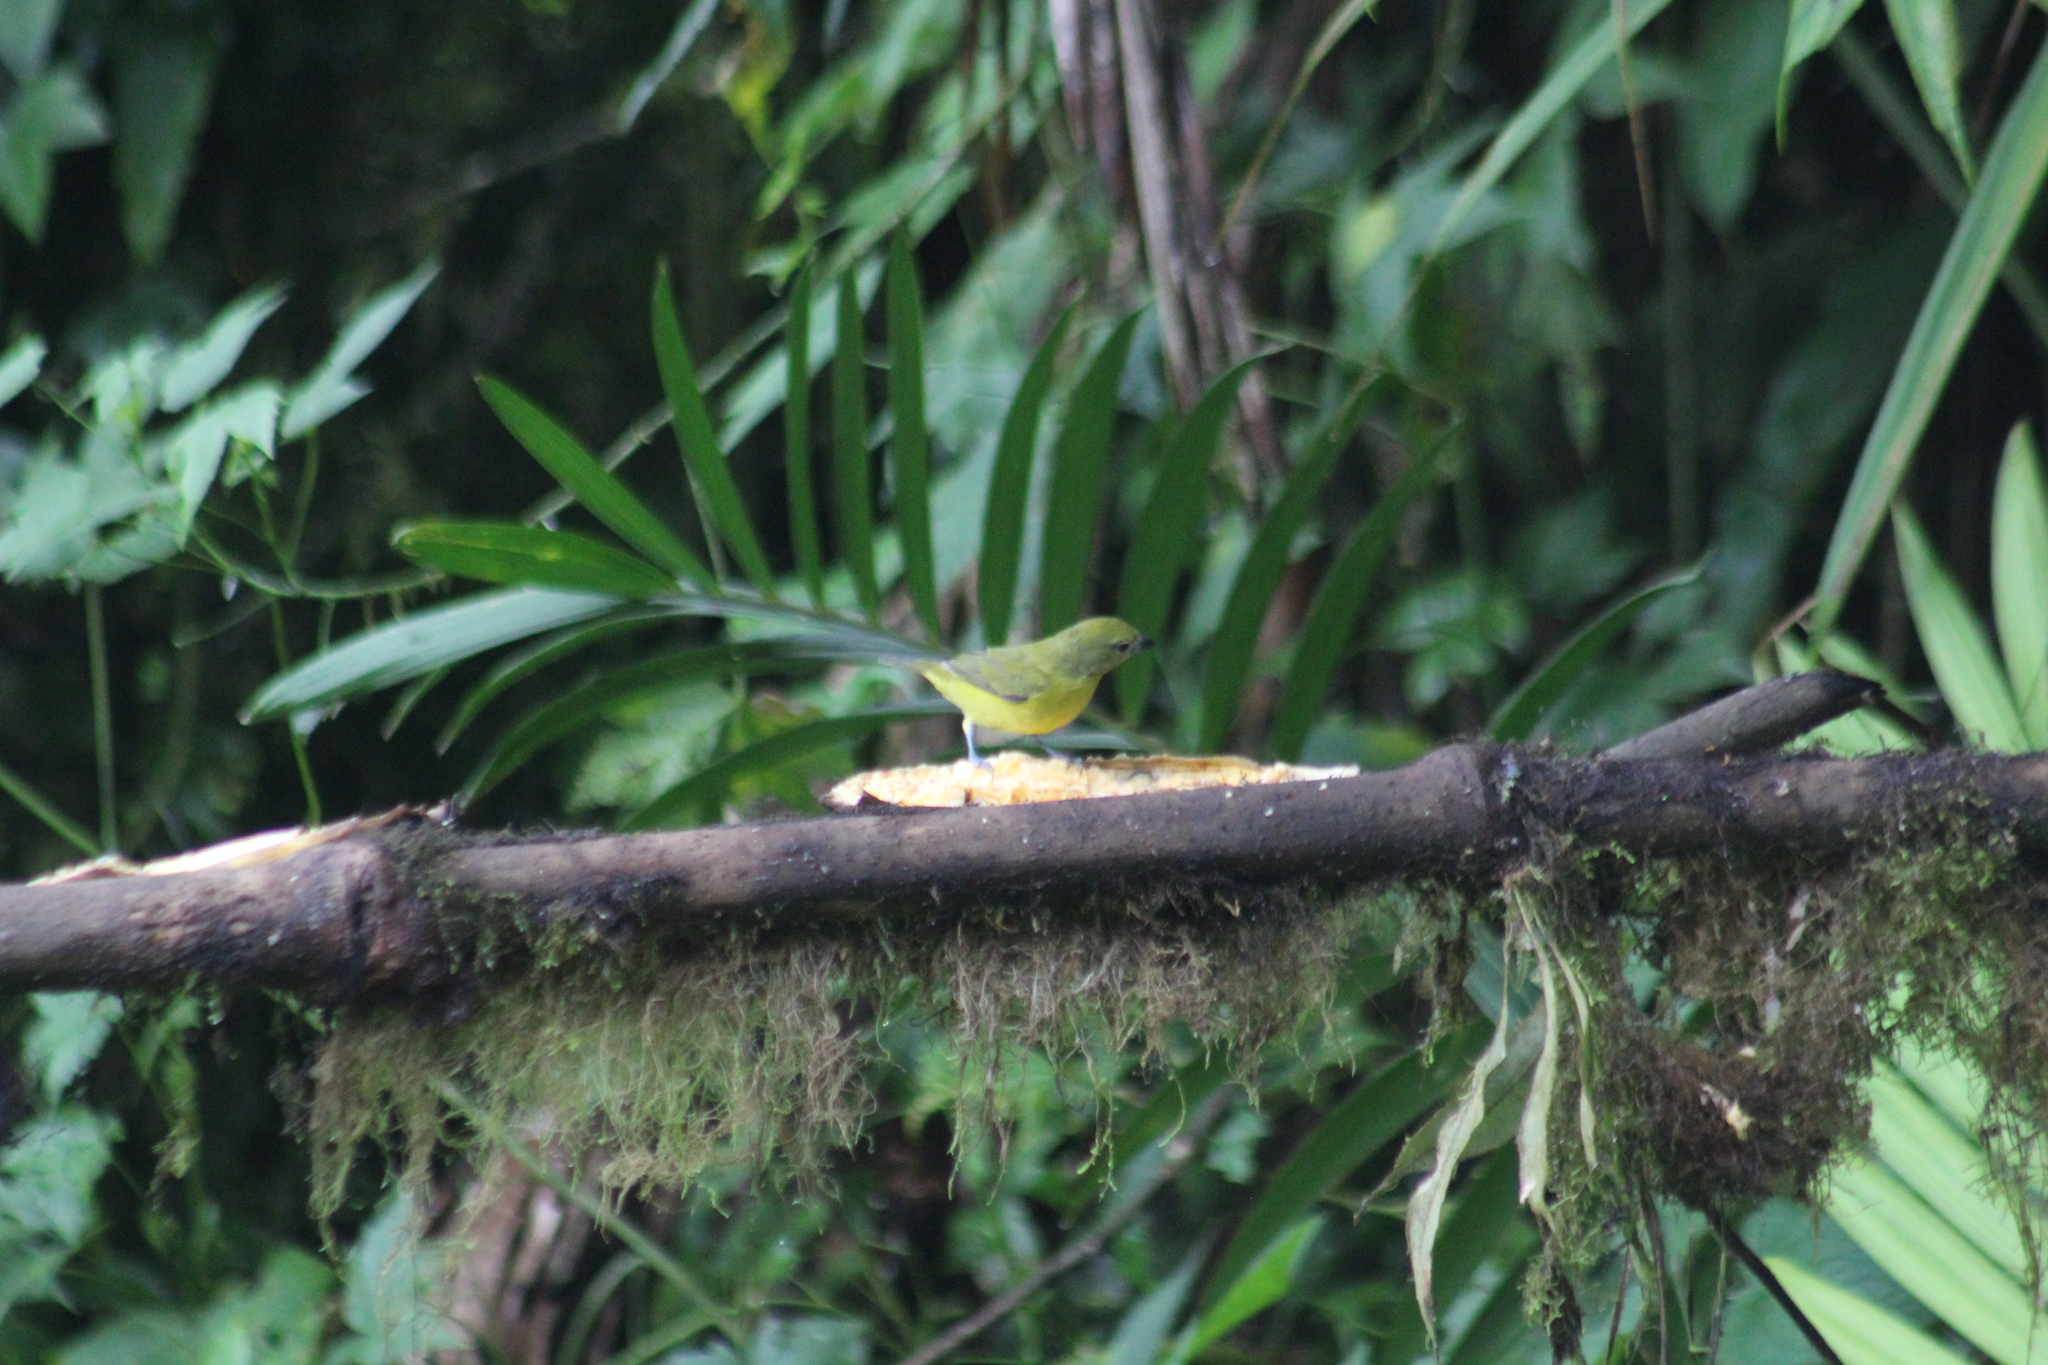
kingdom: Animalia
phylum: Chordata
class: Aves
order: Passeriformes
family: Fringillidae
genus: Euphonia
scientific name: Euphonia laniirostris
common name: Thick-billed euphonia
